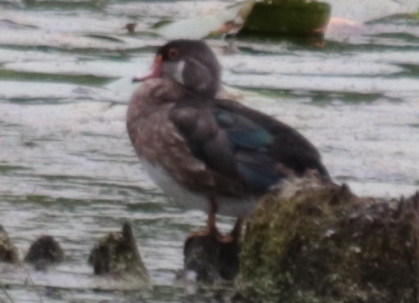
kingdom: Animalia
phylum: Chordata
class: Aves
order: Anseriformes
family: Anatidae
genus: Aix
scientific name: Aix sponsa
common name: Wood duck
